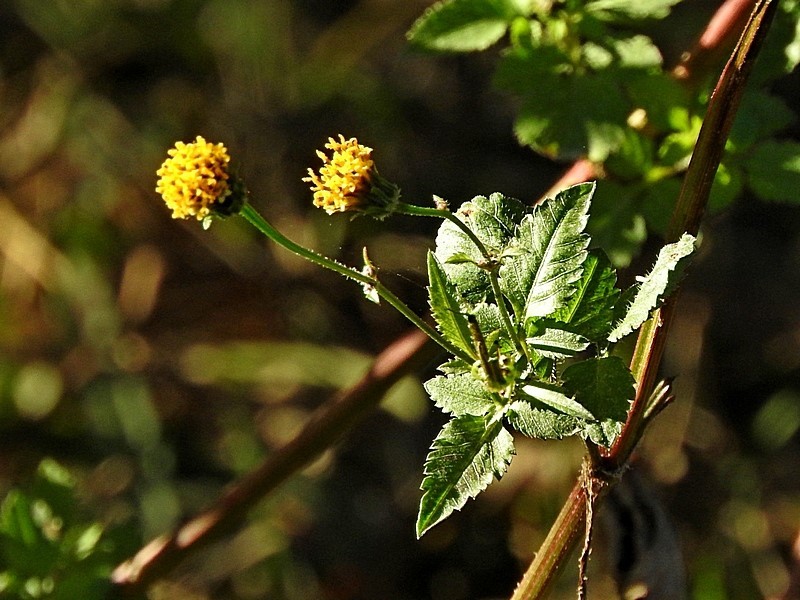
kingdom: Plantae
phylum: Tracheophyta
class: Magnoliopsida
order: Asterales
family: Asteraceae
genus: Bidens
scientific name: Bidens pilosa
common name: Black-jack
